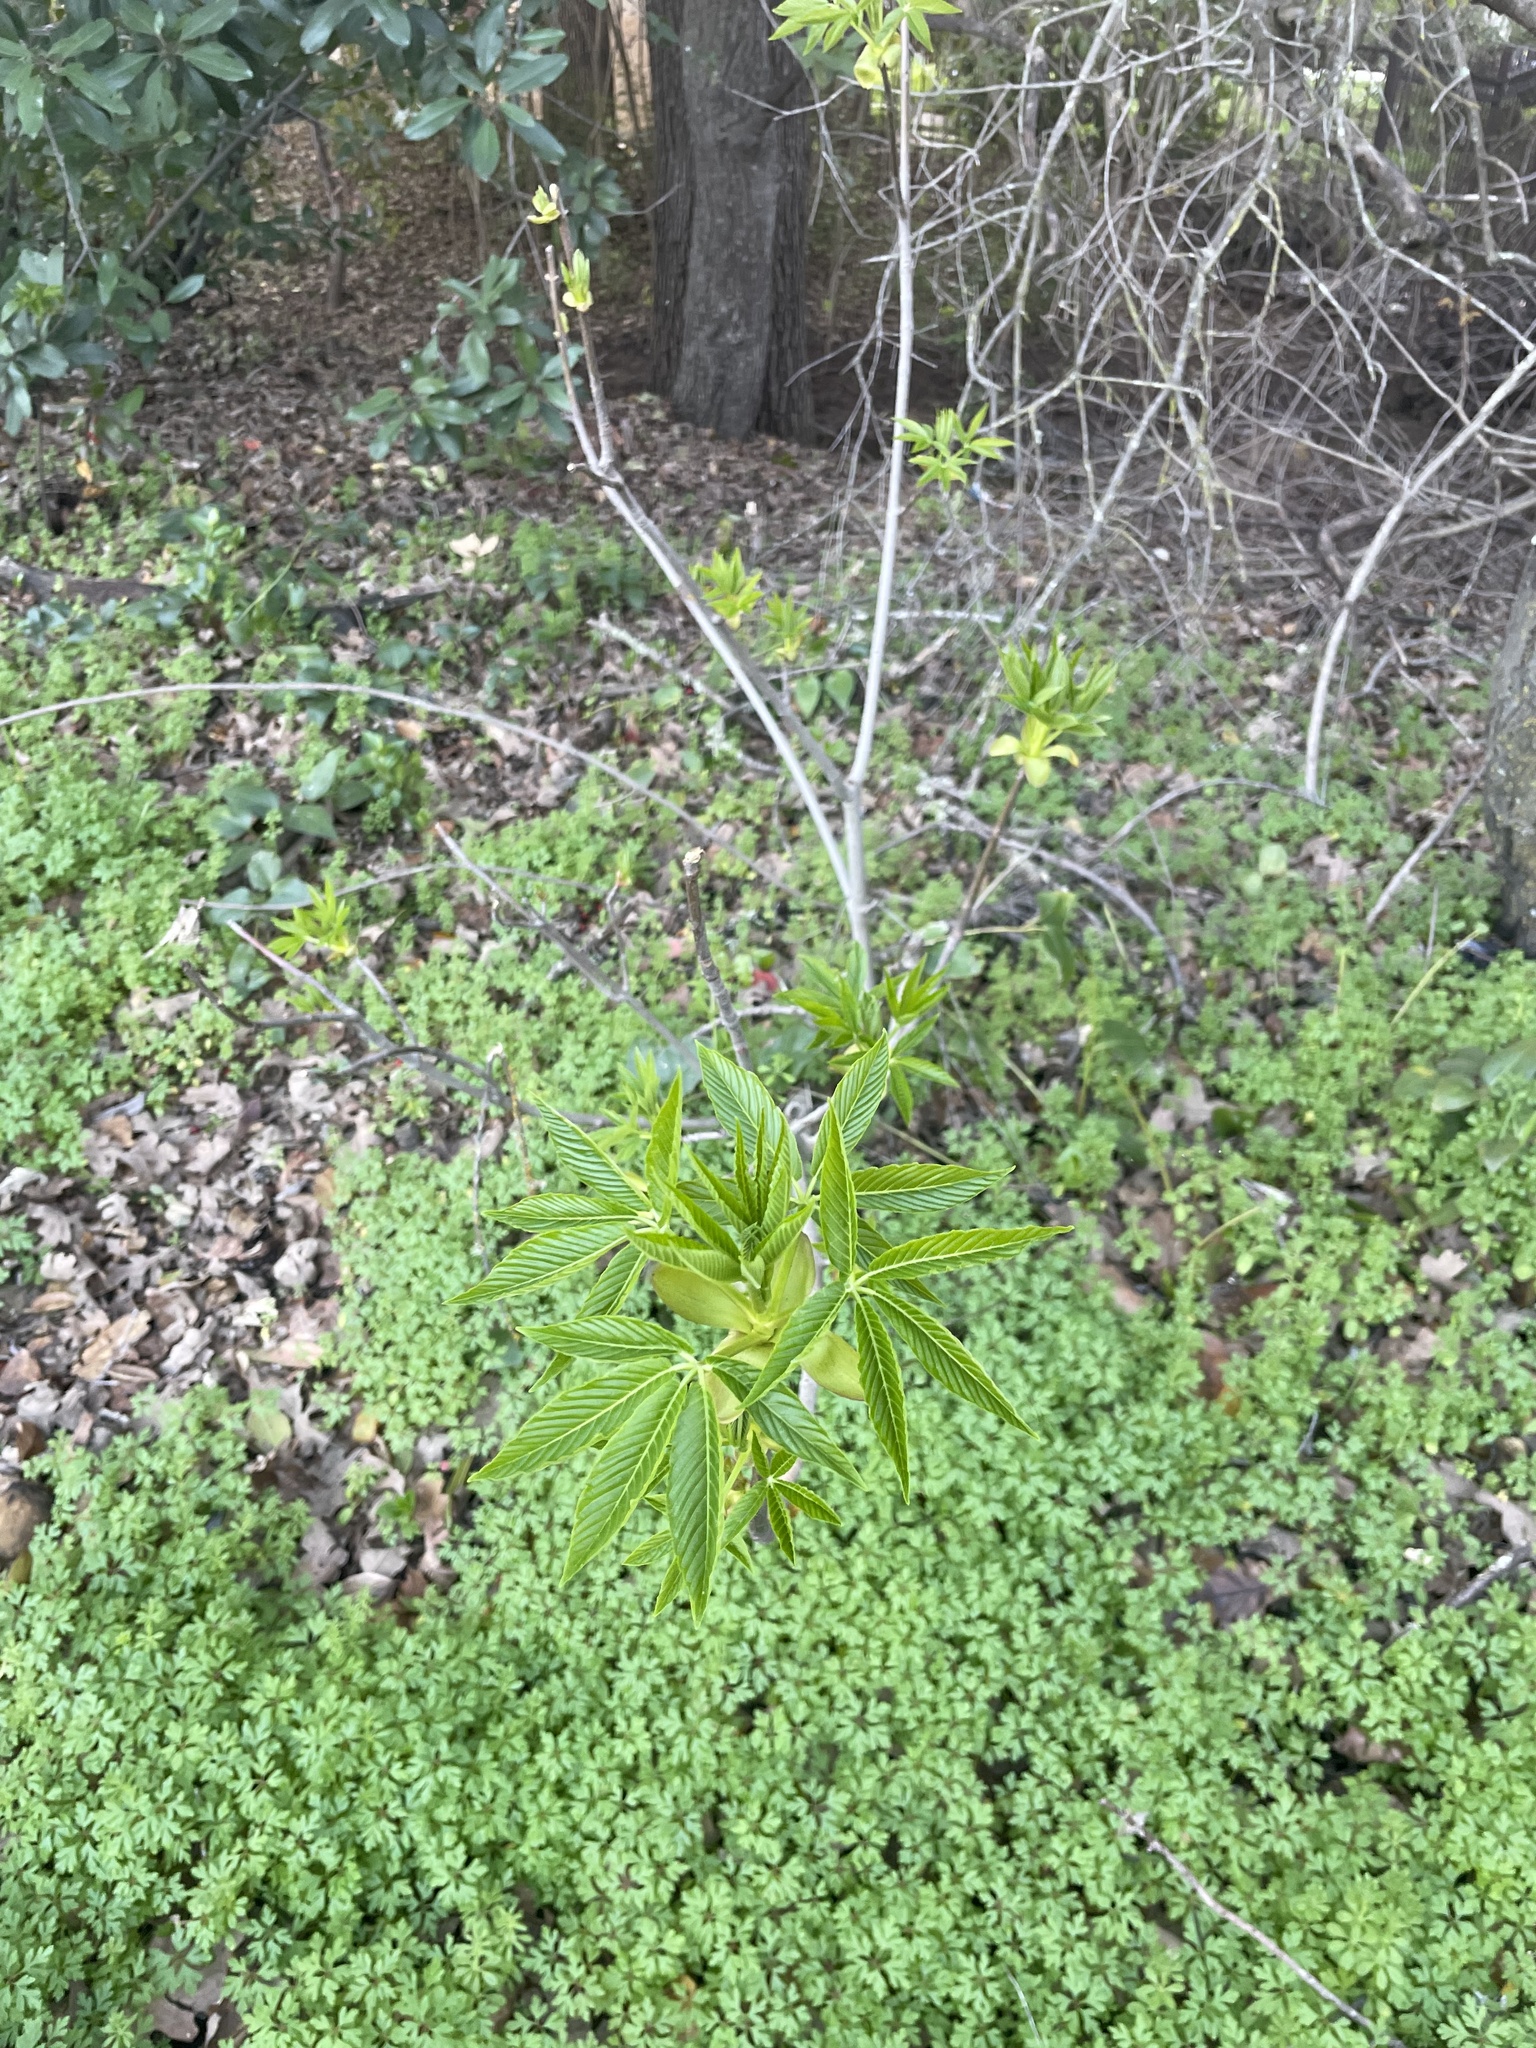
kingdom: Plantae
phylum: Tracheophyta
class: Magnoliopsida
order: Sapindales
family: Sapindaceae
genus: Aesculus
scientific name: Aesculus californica
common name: California buckeye
